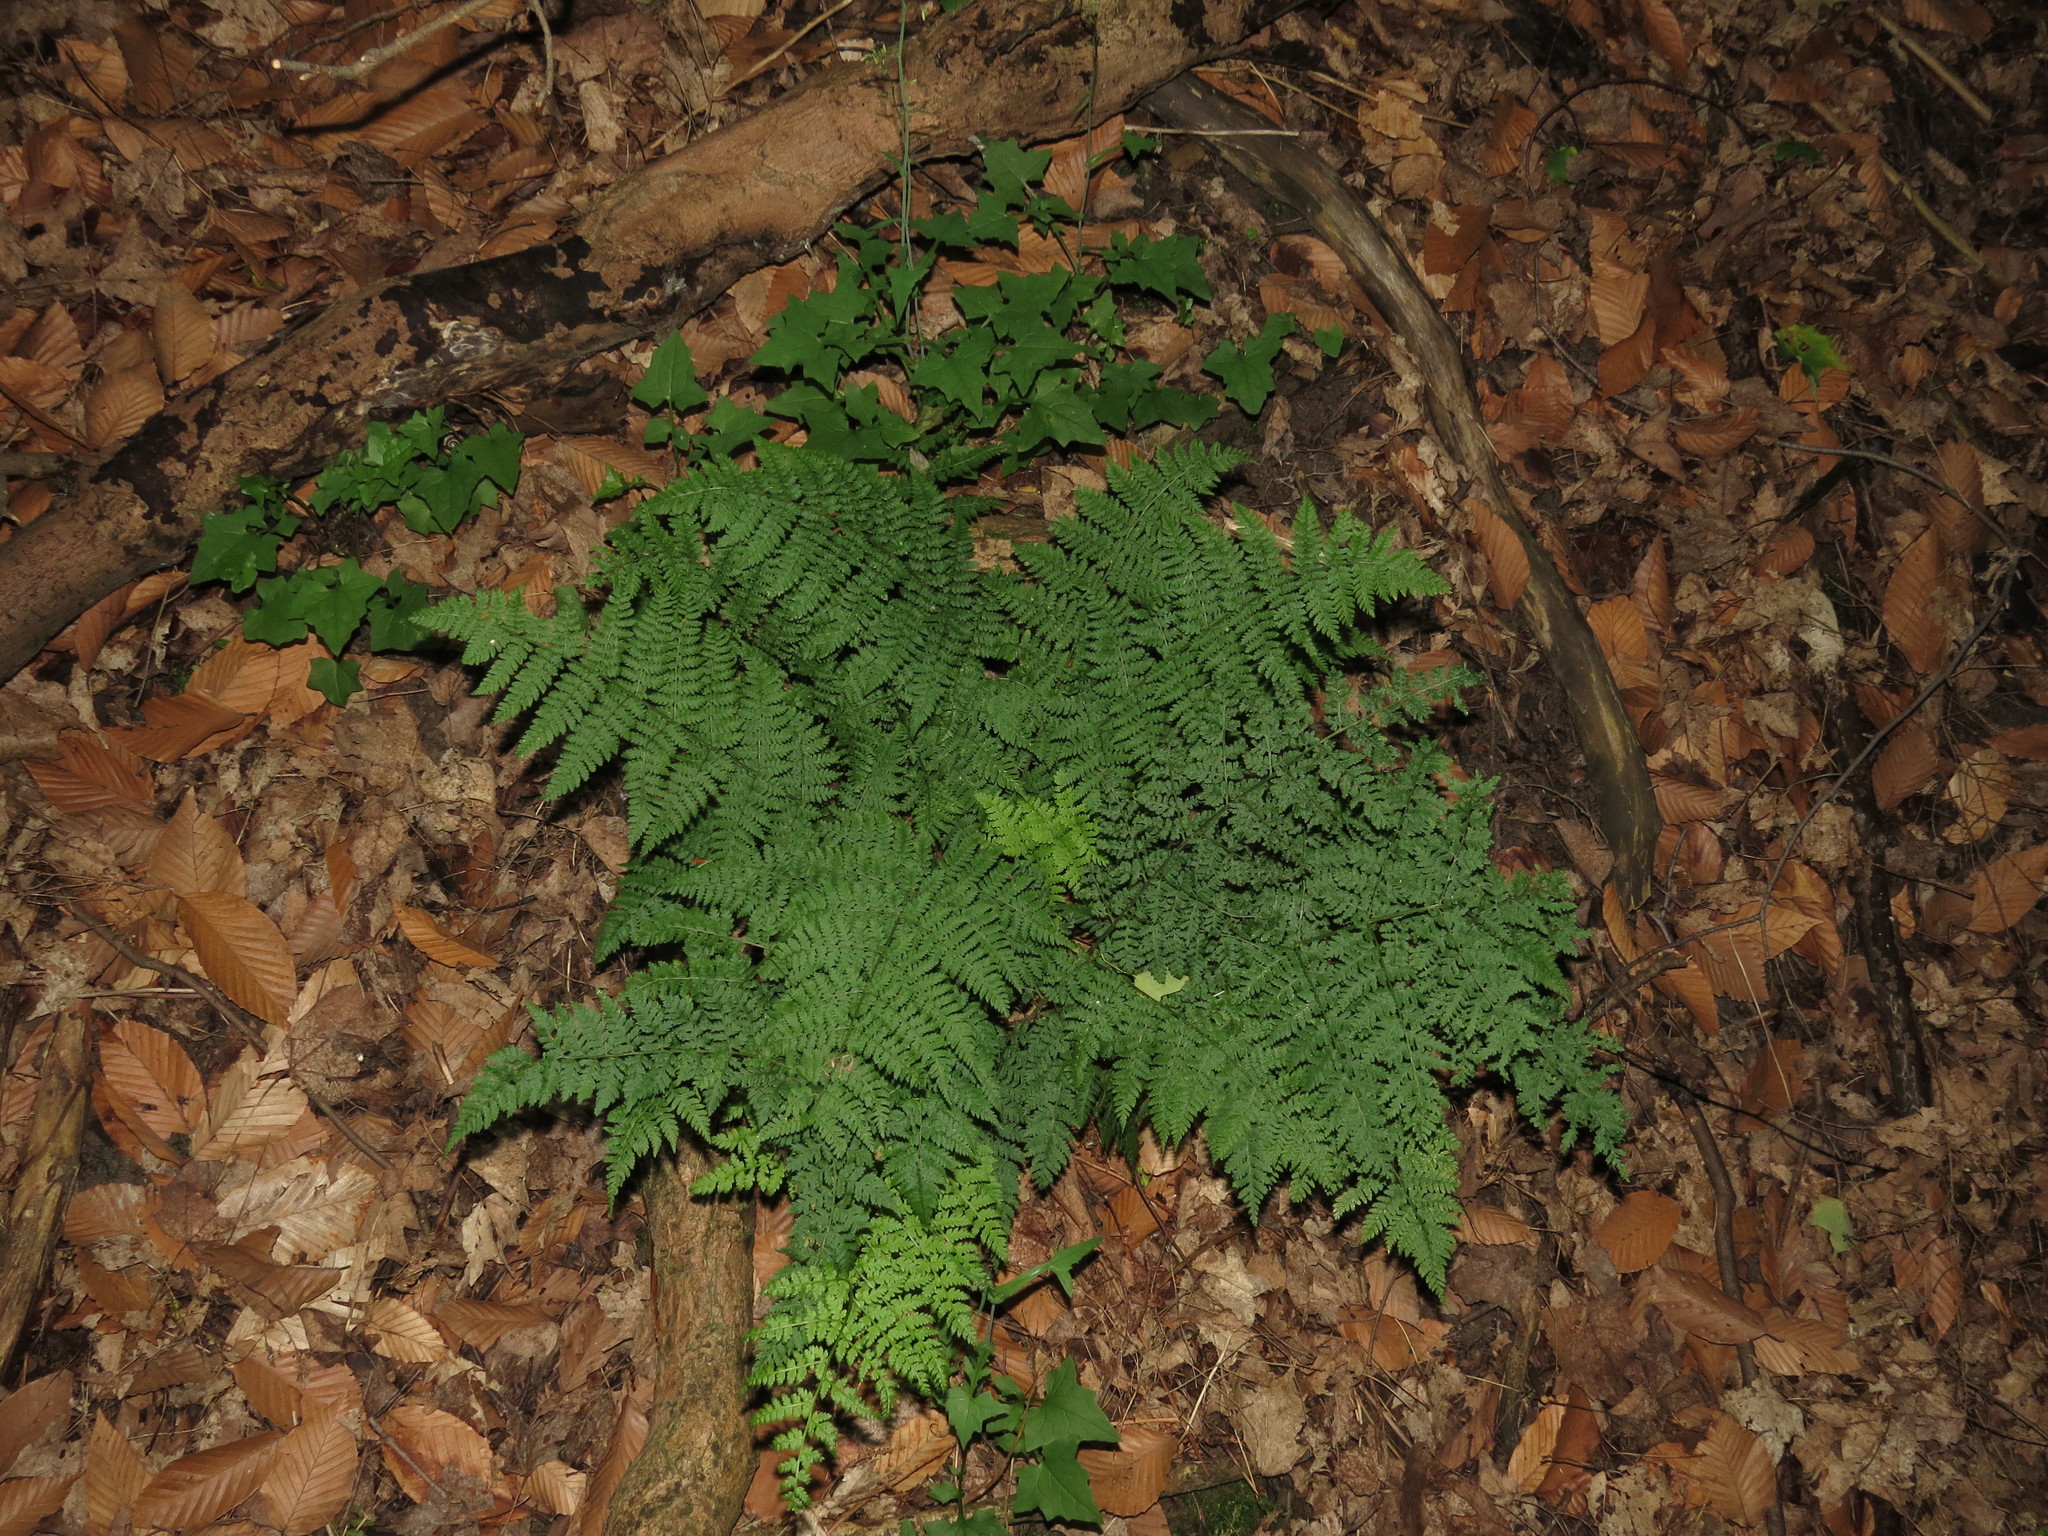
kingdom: Plantae
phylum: Tracheophyta
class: Polypodiopsida
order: Polypodiales
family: Dryopteridaceae
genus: Dryopteris
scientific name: Dryopteris intermedia
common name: Evergreen wood fern
